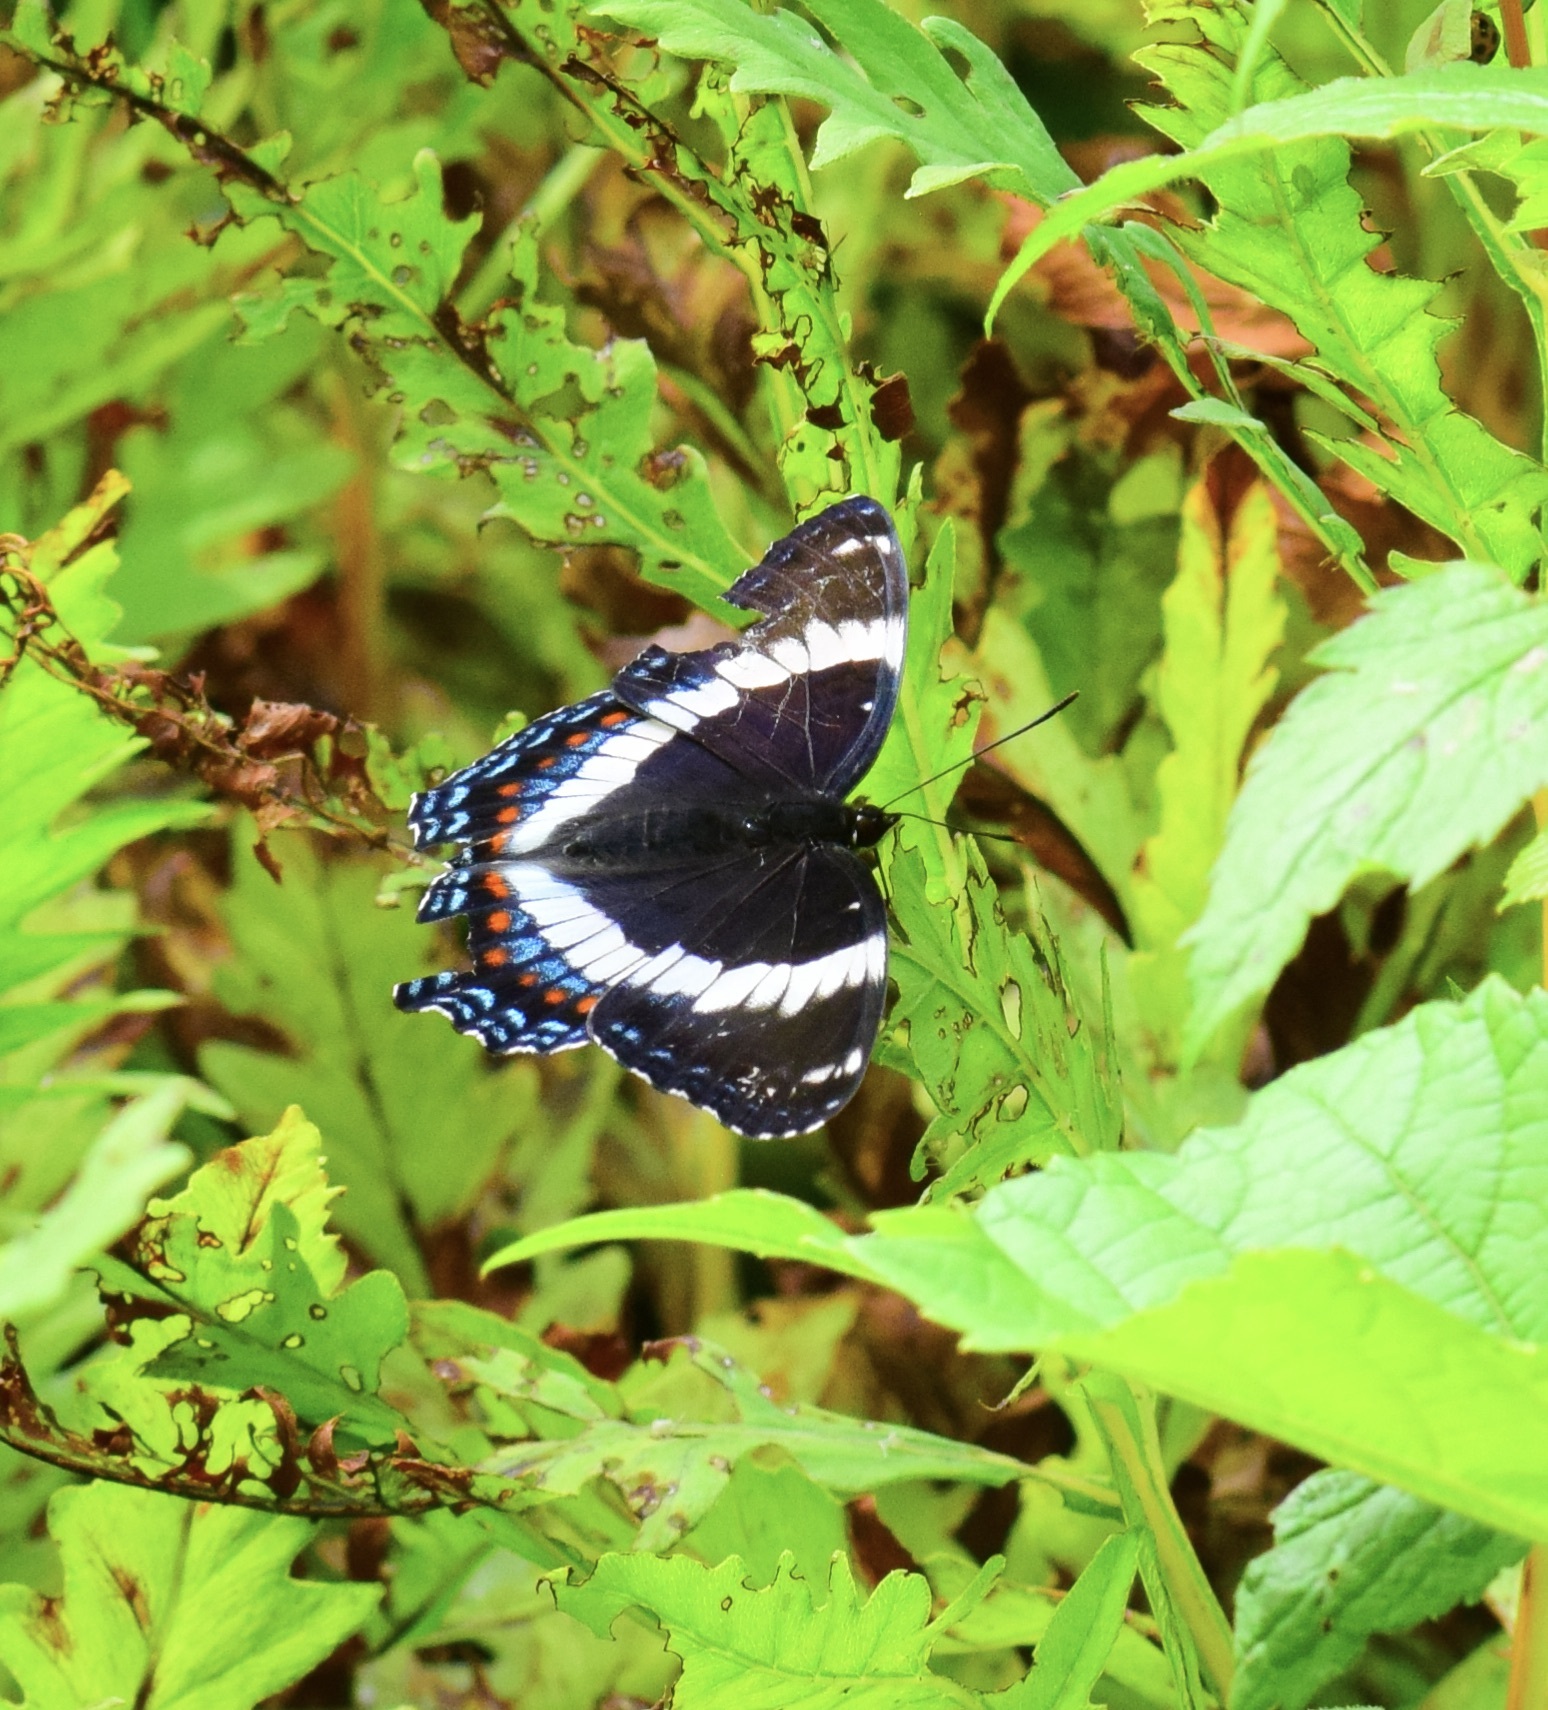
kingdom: Animalia
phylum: Arthropoda
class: Insecta
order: Lepidoptera
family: Nymphalidae
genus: Limenitis
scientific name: Limenitis arthemis
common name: Red-spotted admiral
